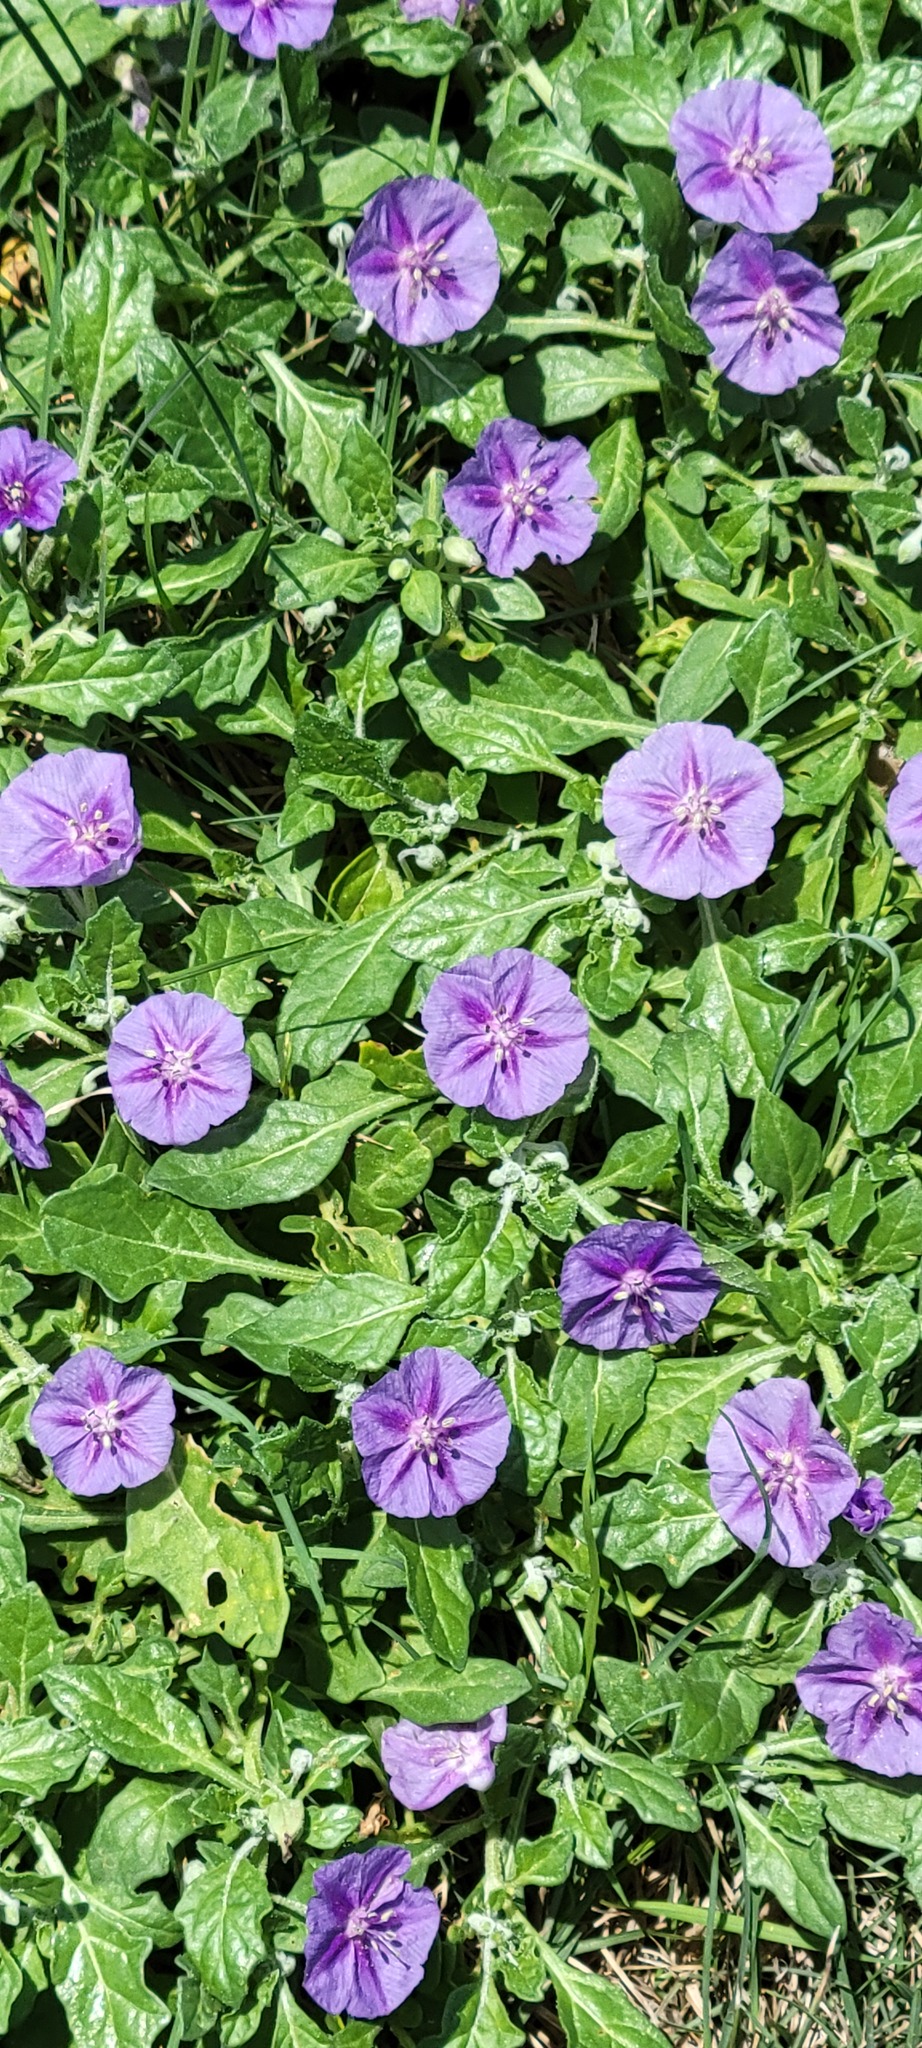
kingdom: Plantae
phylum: Tracheophyta
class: Magnoliopsida
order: Solanales
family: Solanaceae
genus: Quincula
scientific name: Quincula lobata
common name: Purple-ground-cherry
